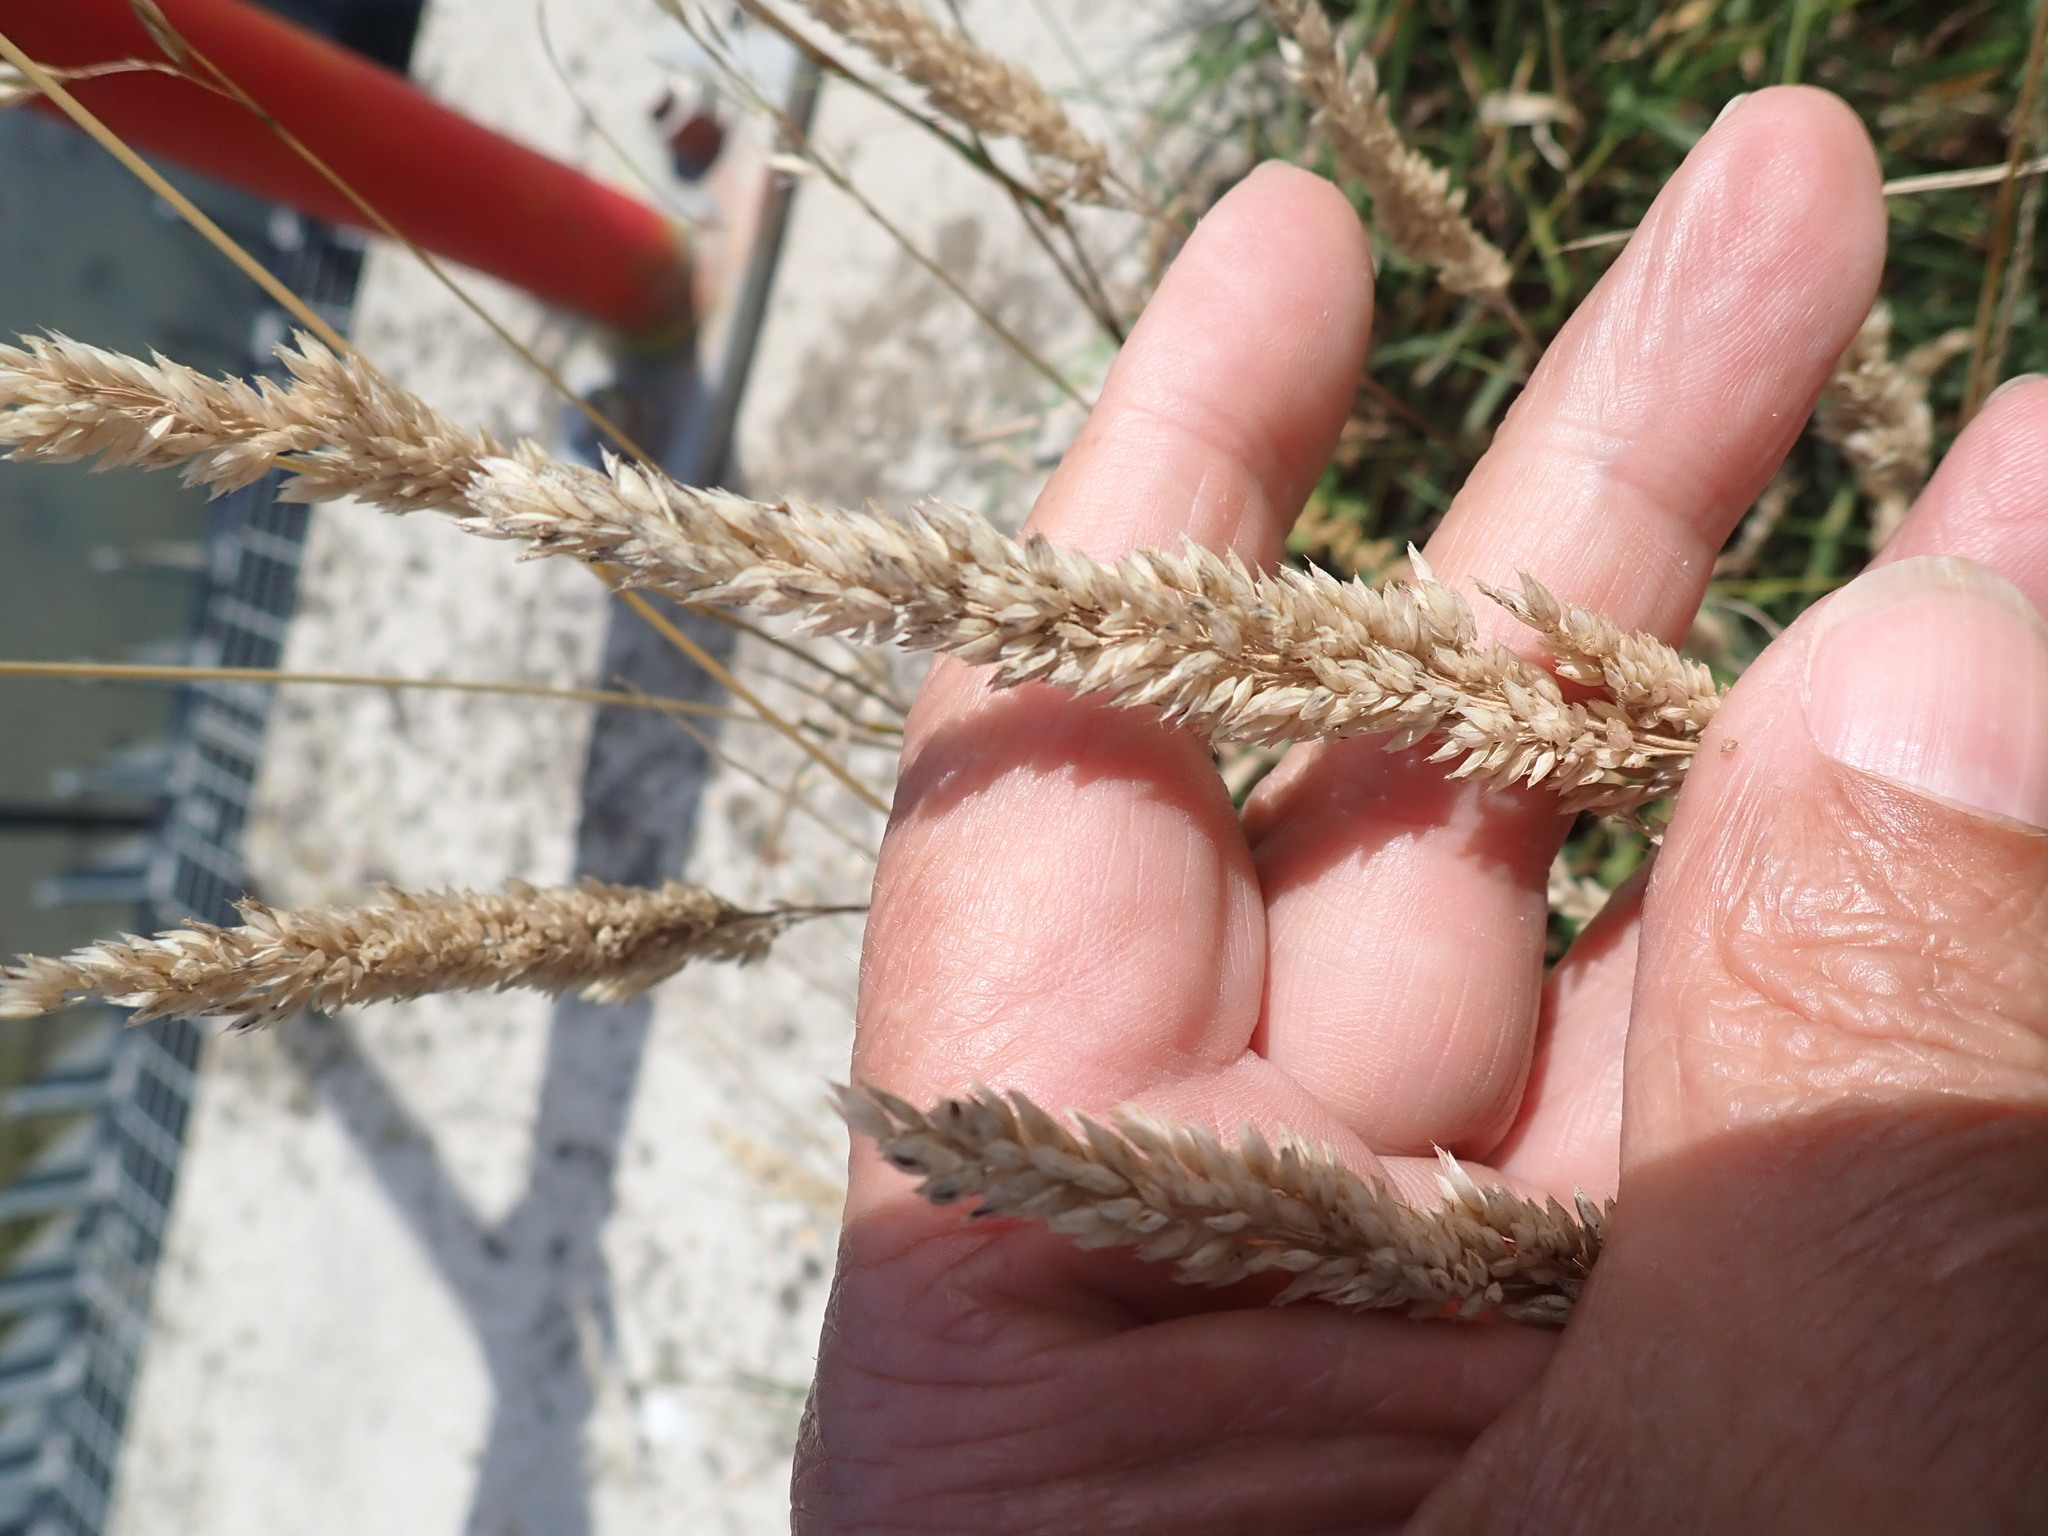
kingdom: Plantae
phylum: Tracheophyta
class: Liliopsida
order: Poales
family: Poaceae
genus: Holcus
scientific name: Holcus lanatus
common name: Yorkshire-fog
